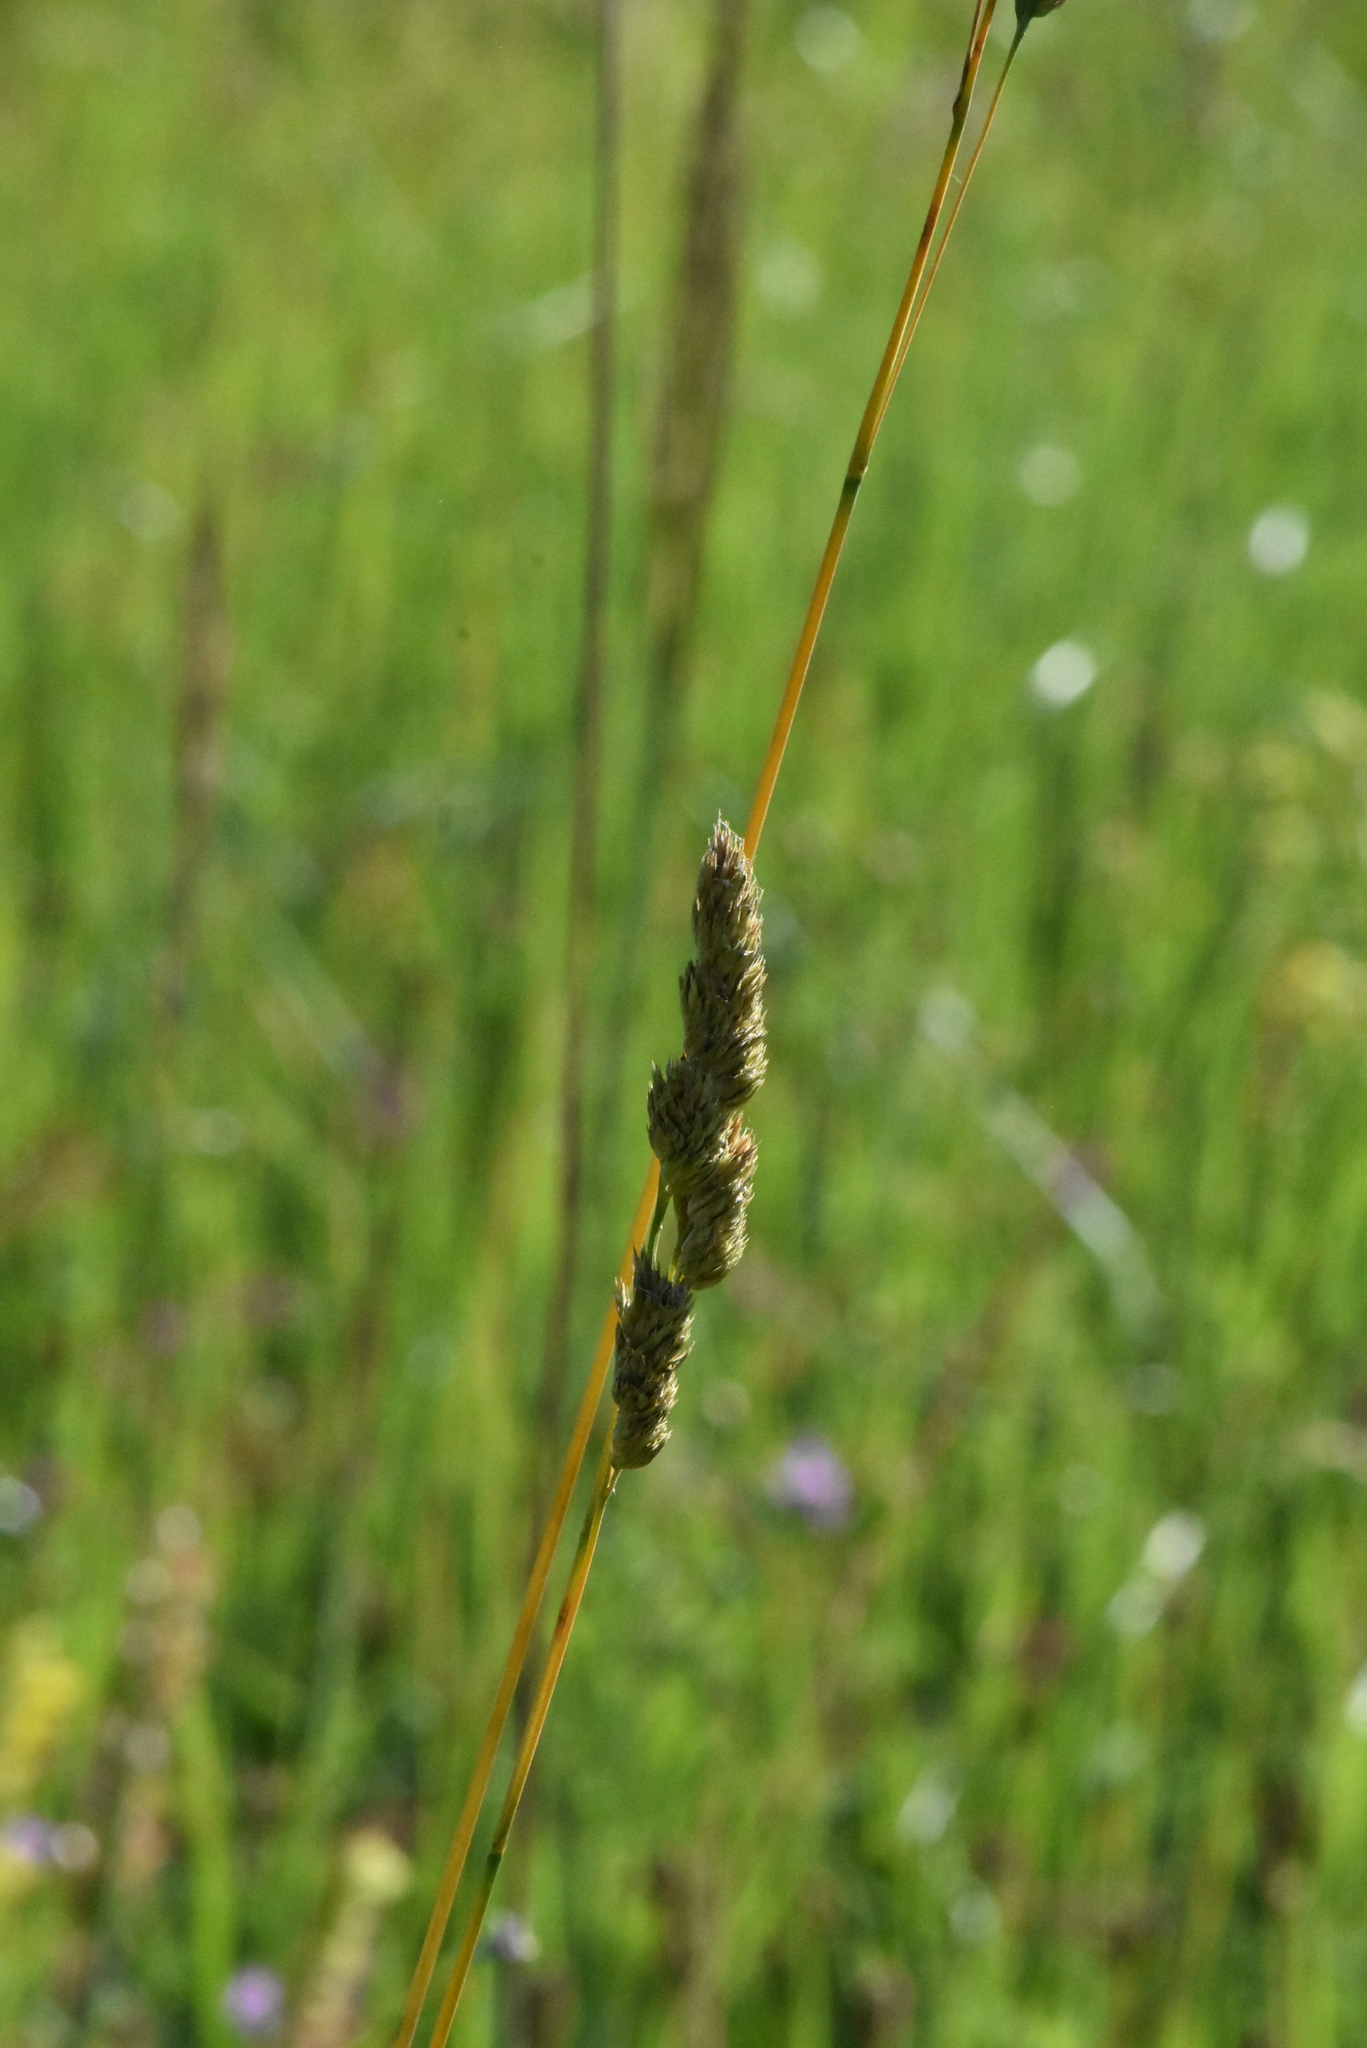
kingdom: Plantae
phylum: Tracheophyta
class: Liliopsida
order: Poales
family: Poaceae
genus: Dactylis
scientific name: Dactylis glomerata
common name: Orchardgrass
